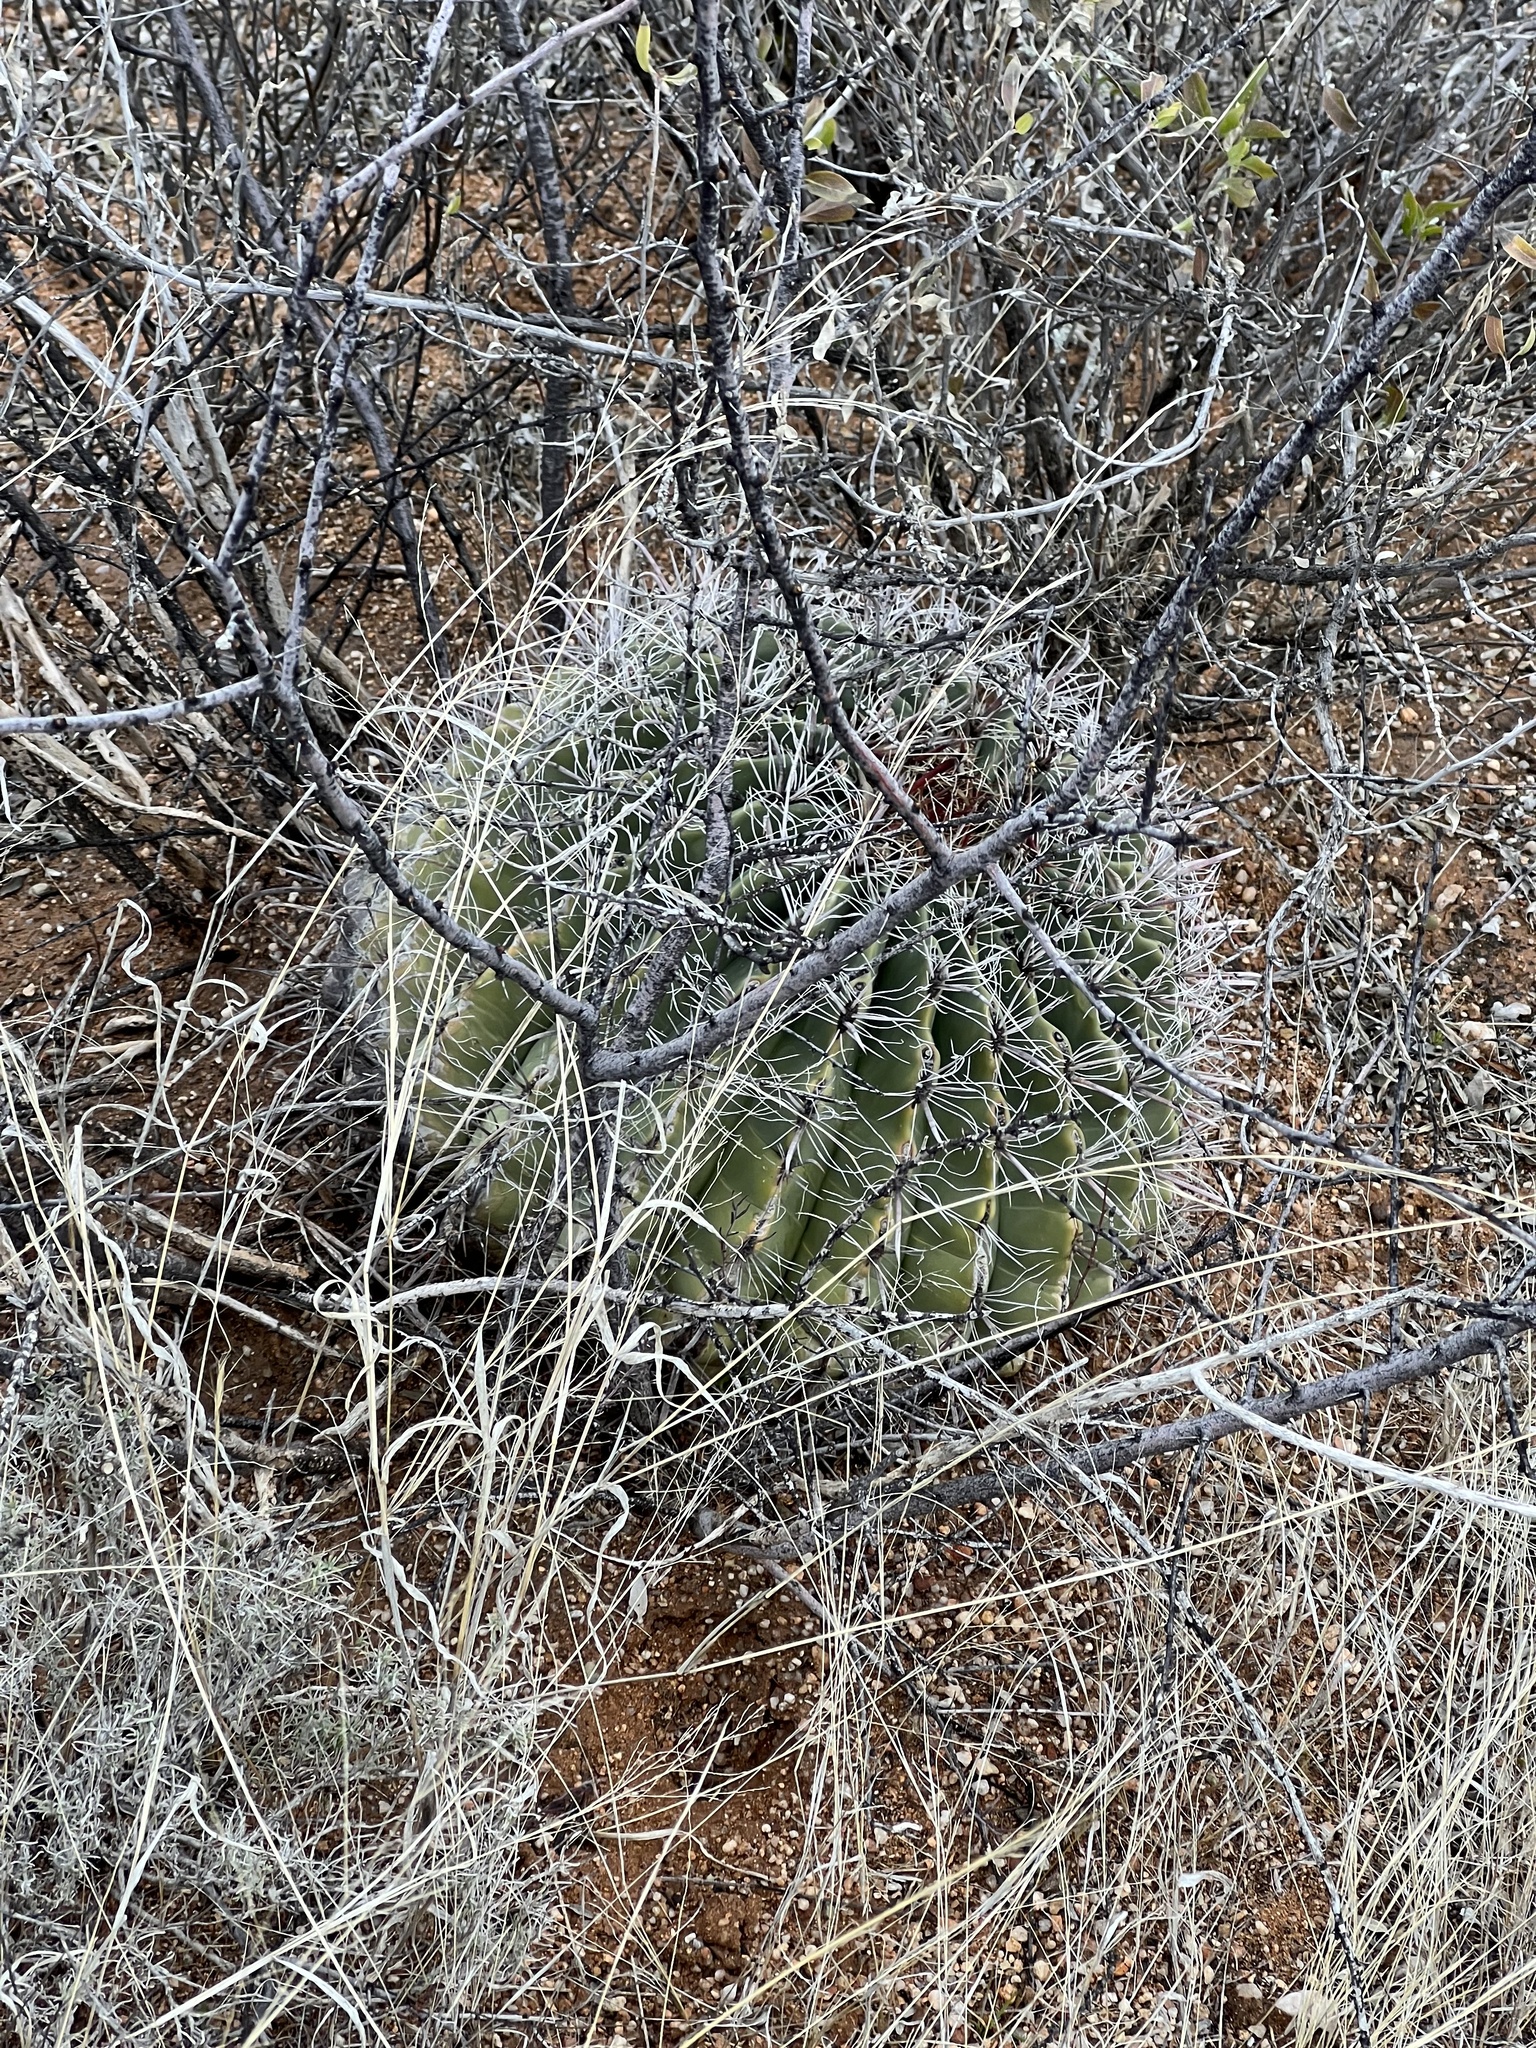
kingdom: Plantae
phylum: Tracheophyta
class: Magnoliopsida
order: Caryophyllales
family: Cactaceae
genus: Ferocactus
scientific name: Ferocactus wislizeni
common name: Candy barrel cactus
